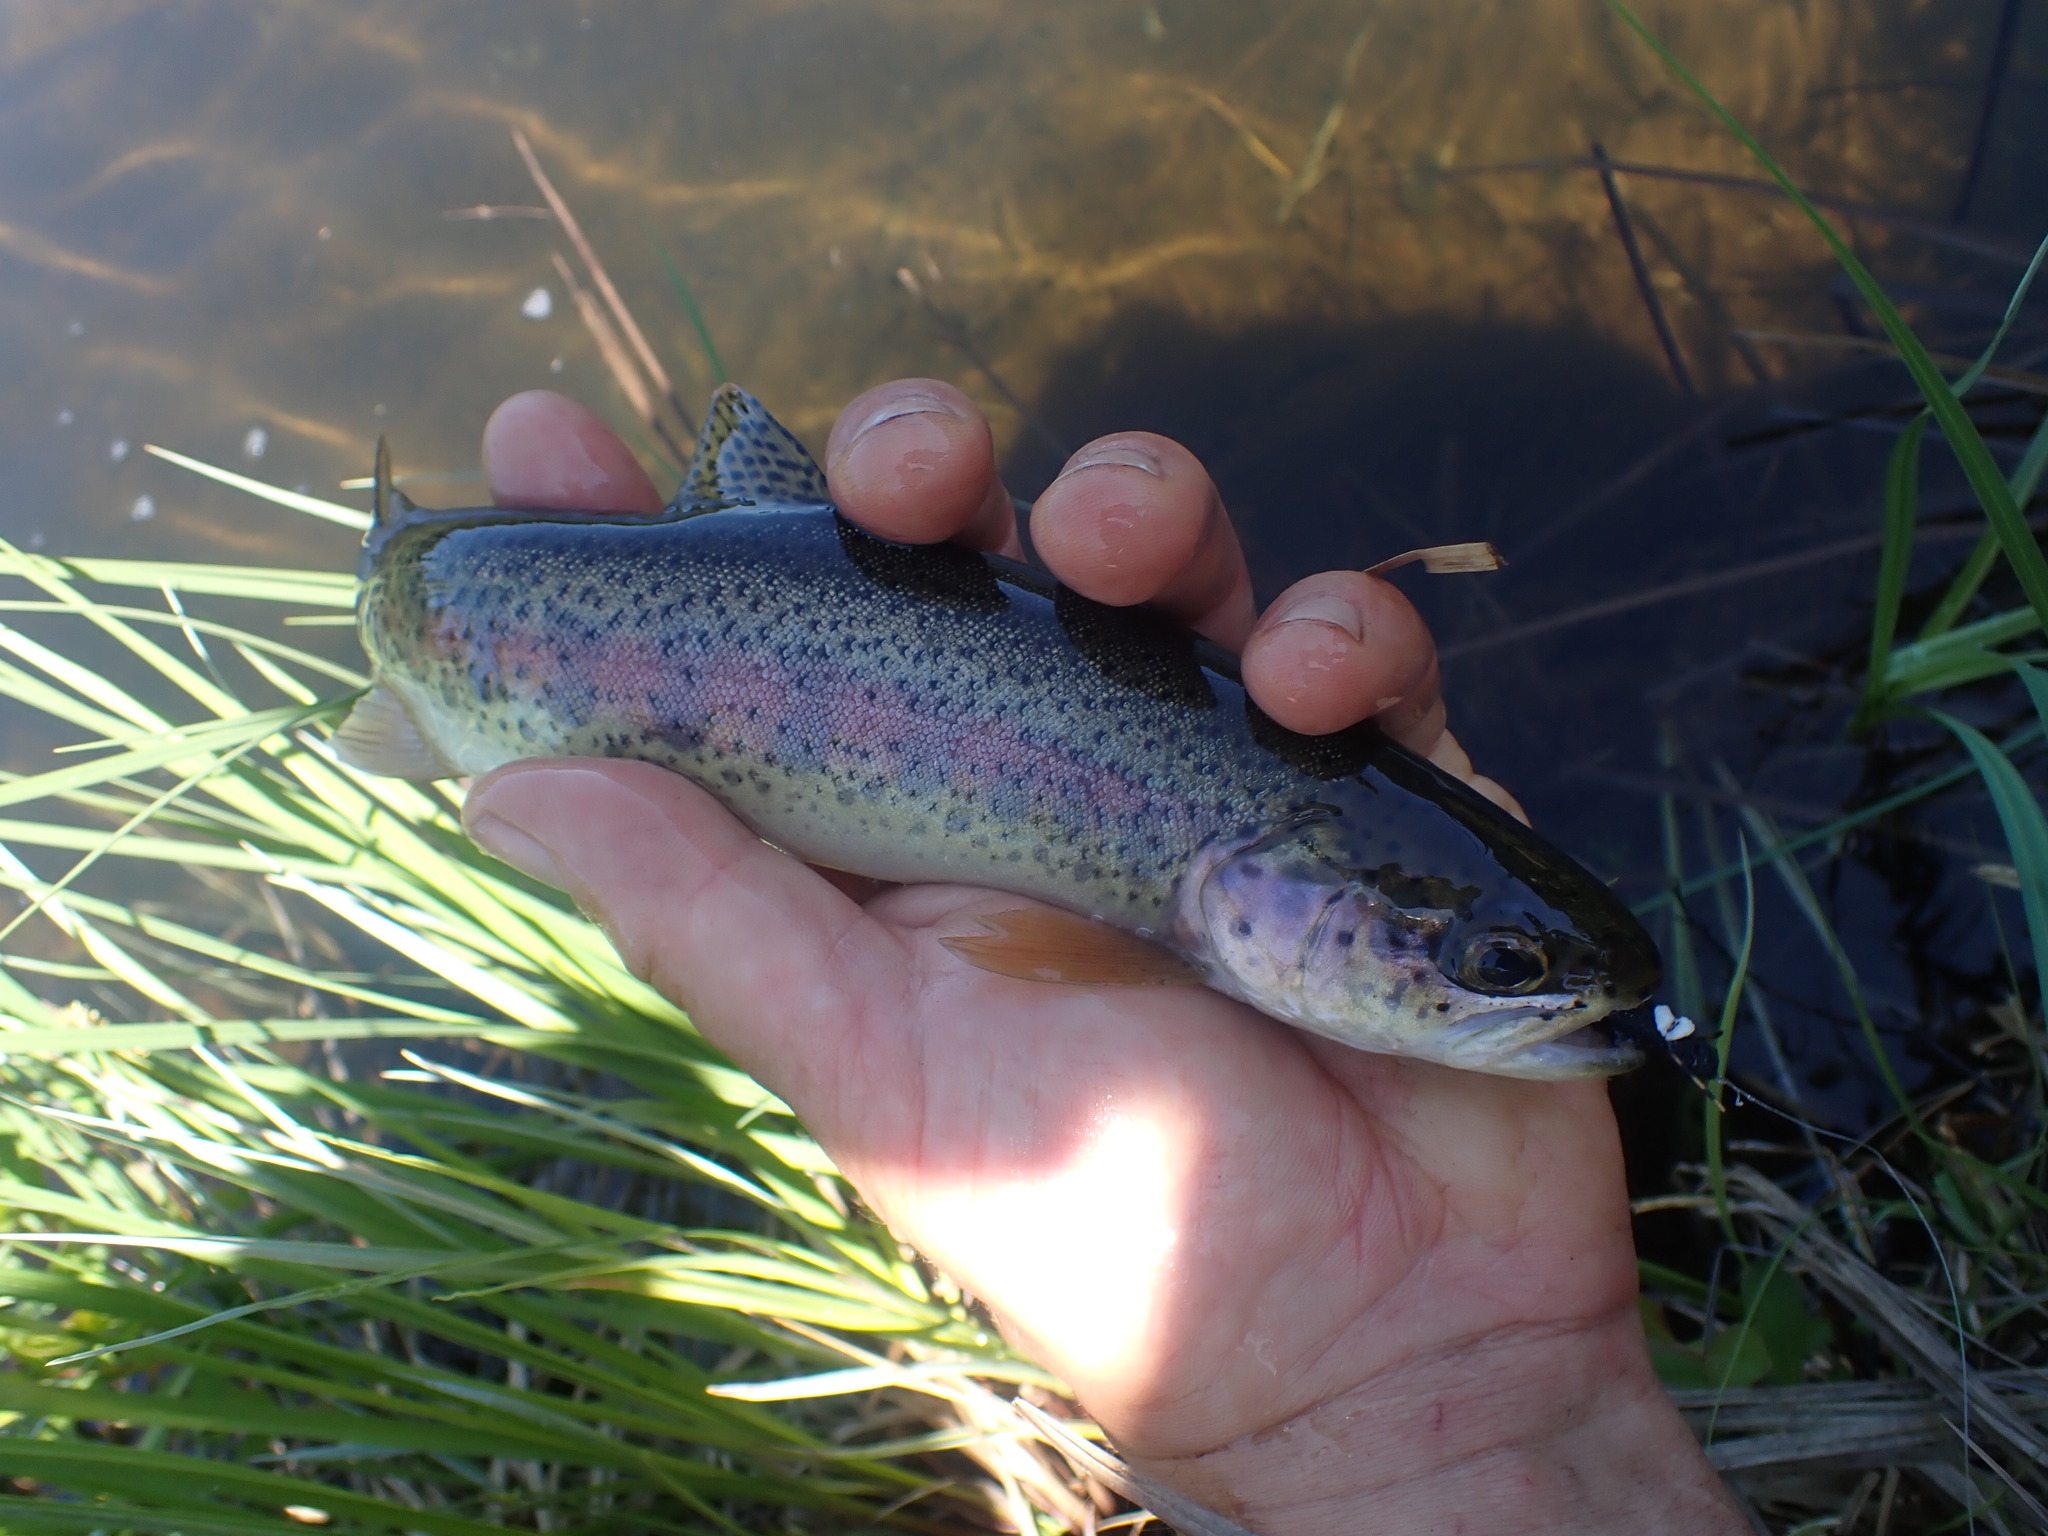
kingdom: Animalia
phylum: Chordata
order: Salmoniformes
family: Salmonidae
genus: Oncorhynchus
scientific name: Oncorhynchus mykiss
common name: Rainbow trout
